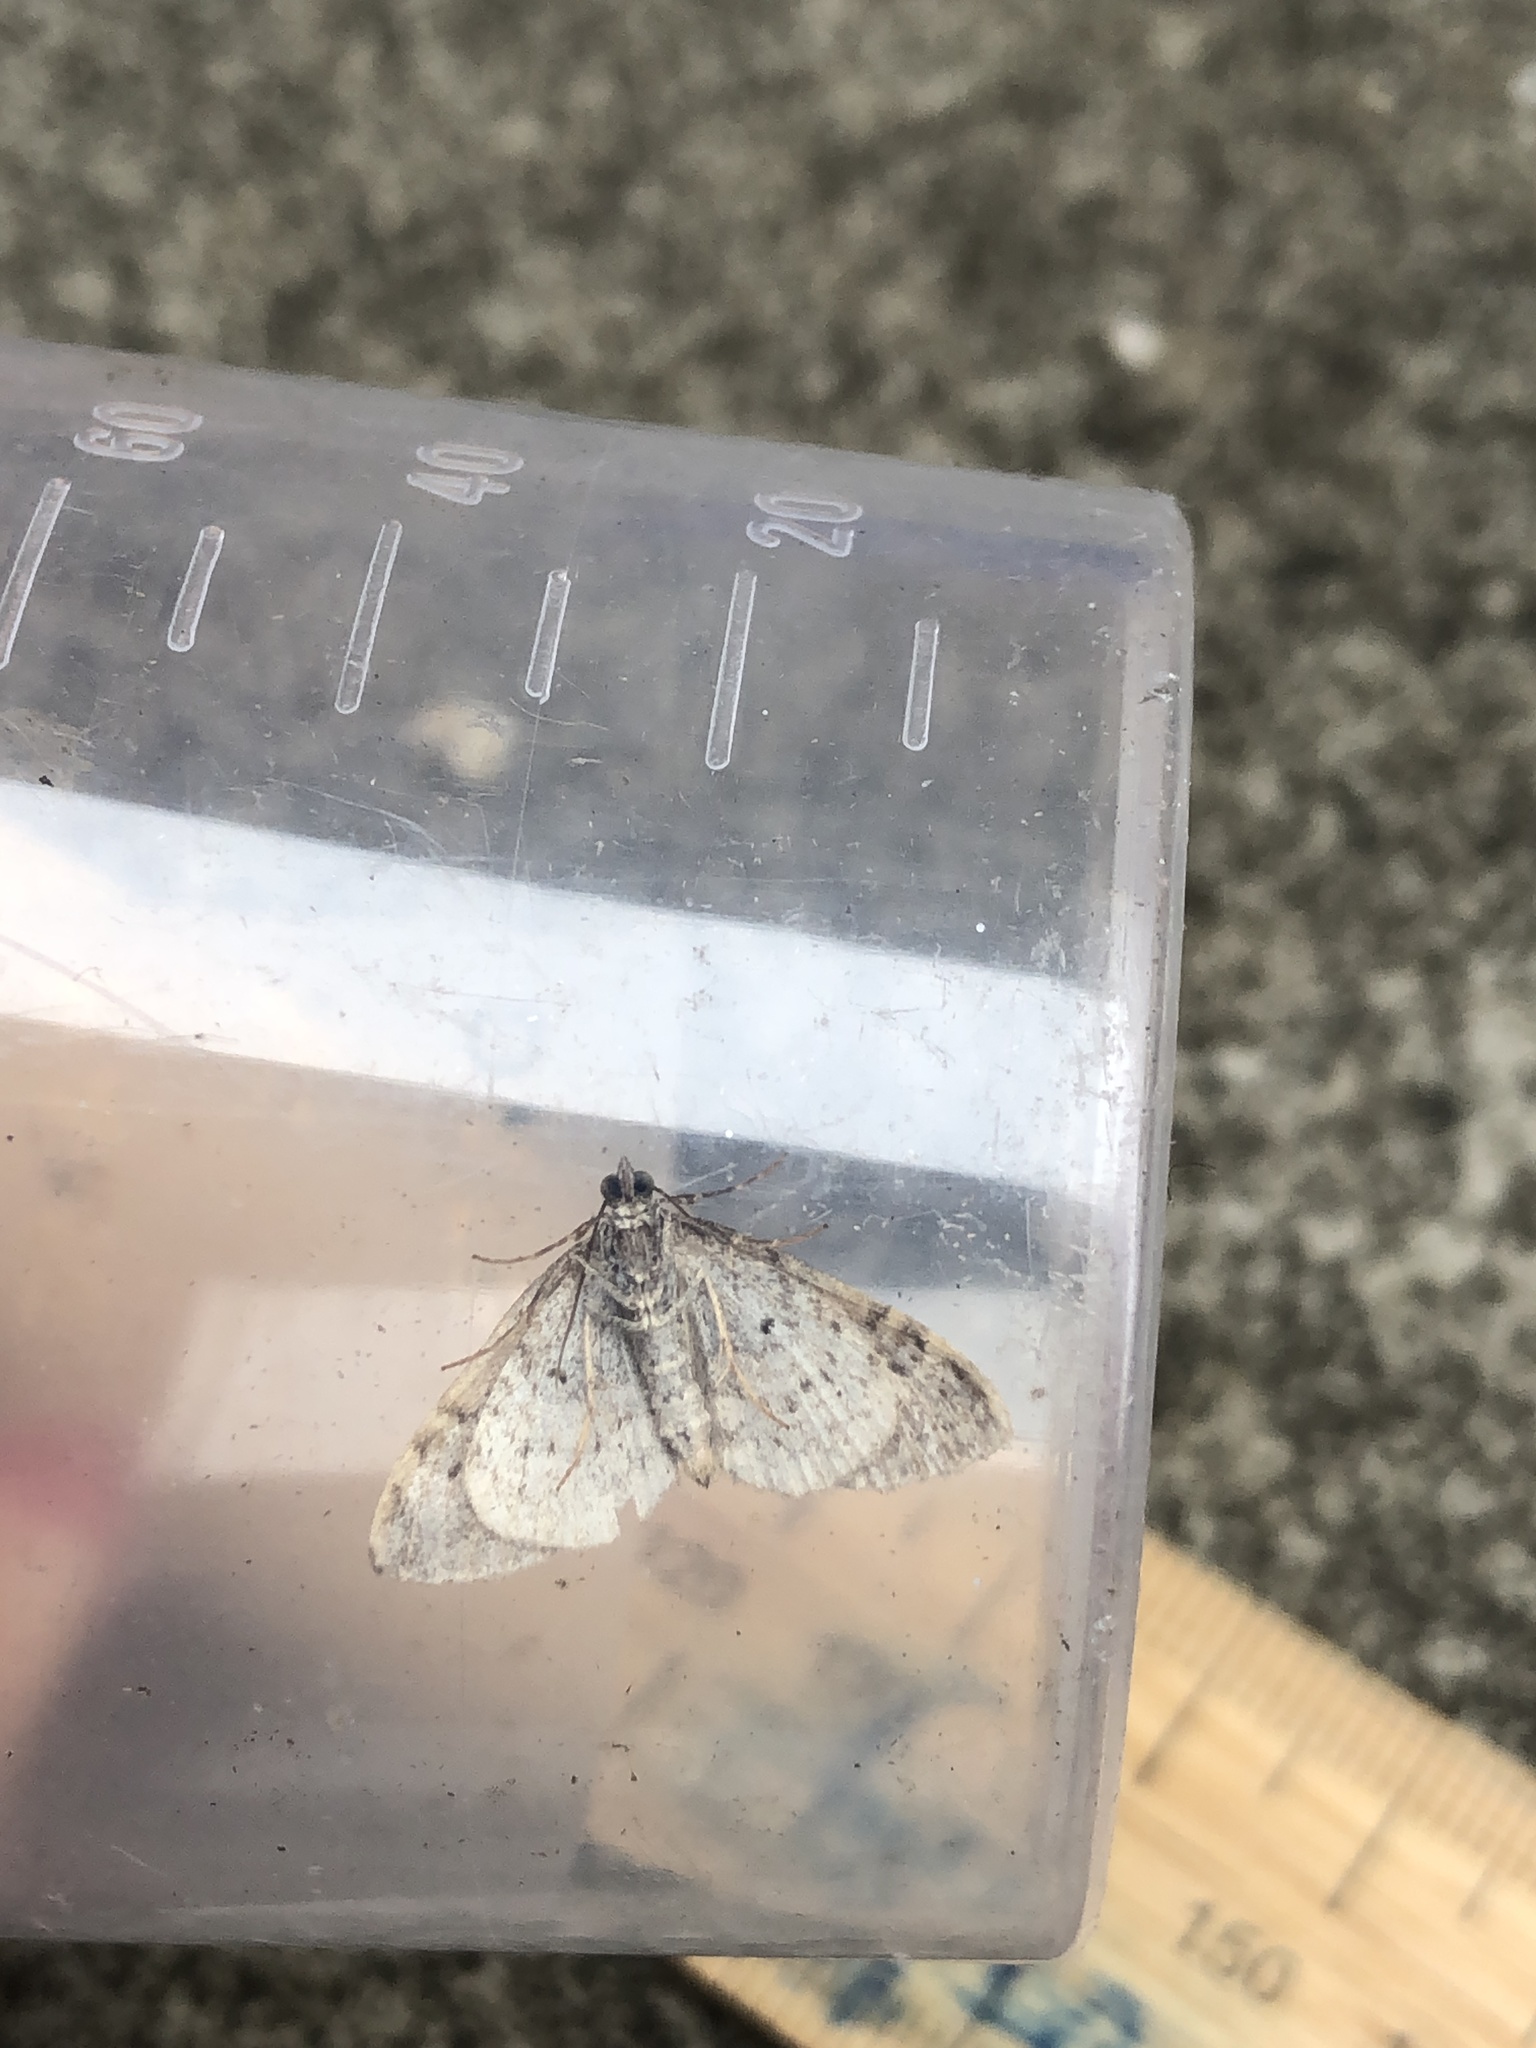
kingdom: Animalia
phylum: Arthropoda
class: Insecta
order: Lepidoptera
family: Geometridae
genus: Xanthorhoe
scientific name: Xanthorhoe designata
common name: Flame carpet
